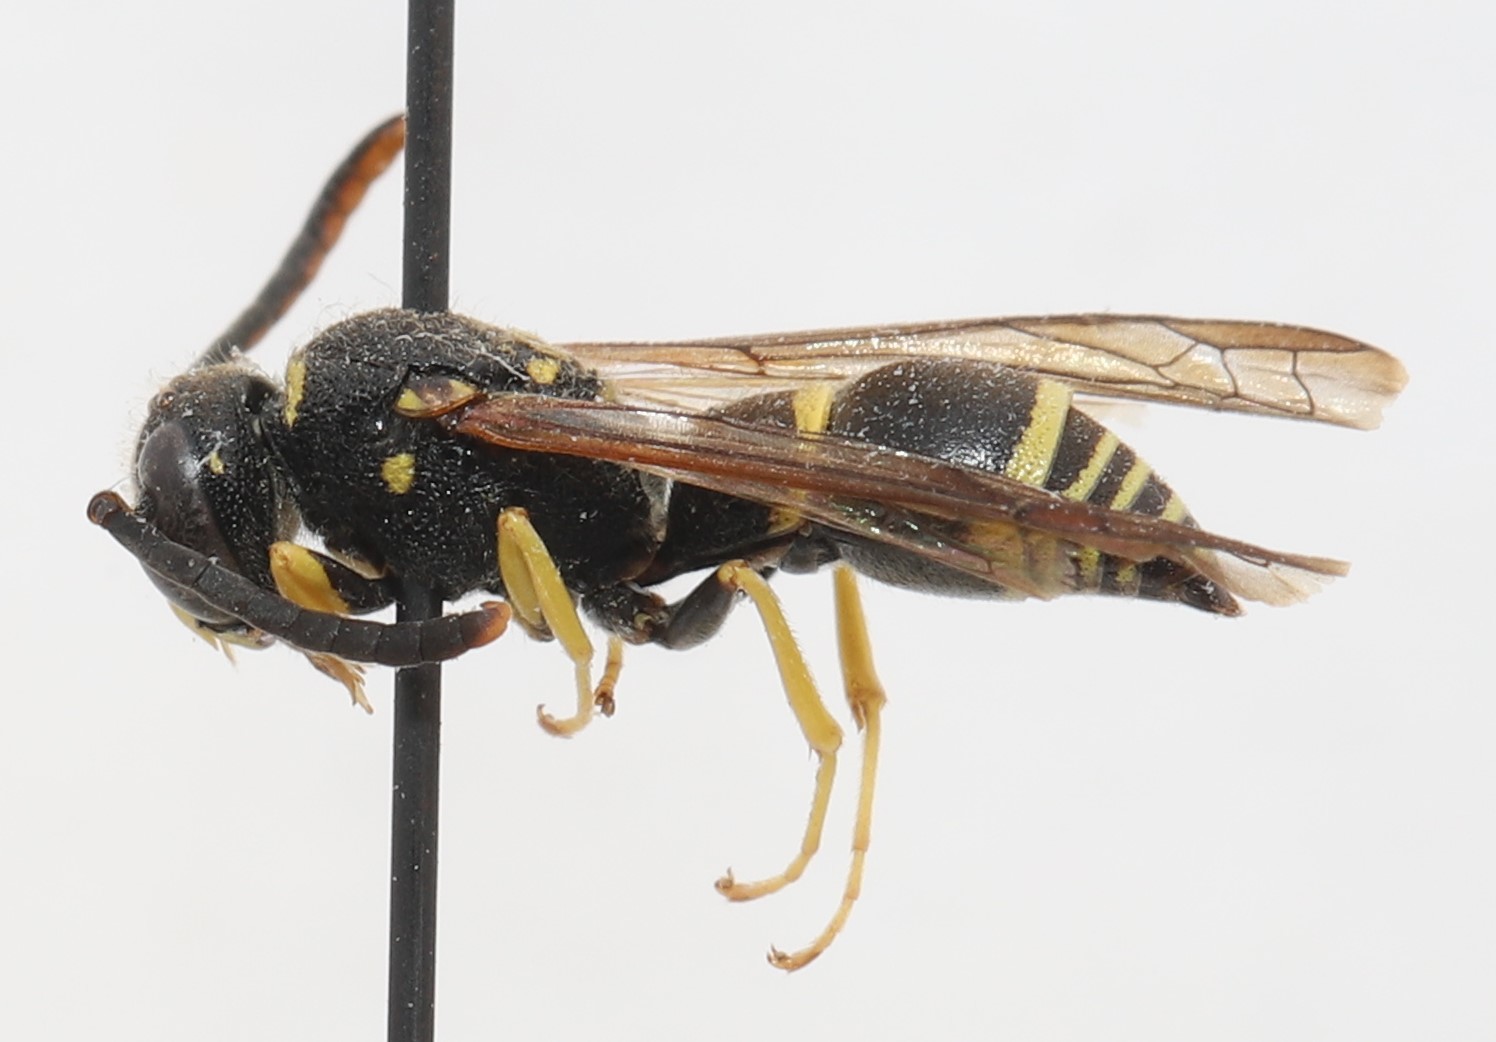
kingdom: Animalia
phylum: Arthropoda
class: Insecta
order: Hymenoptera
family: Vespidae
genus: Ancistrocerus
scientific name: Ancistrocerus
